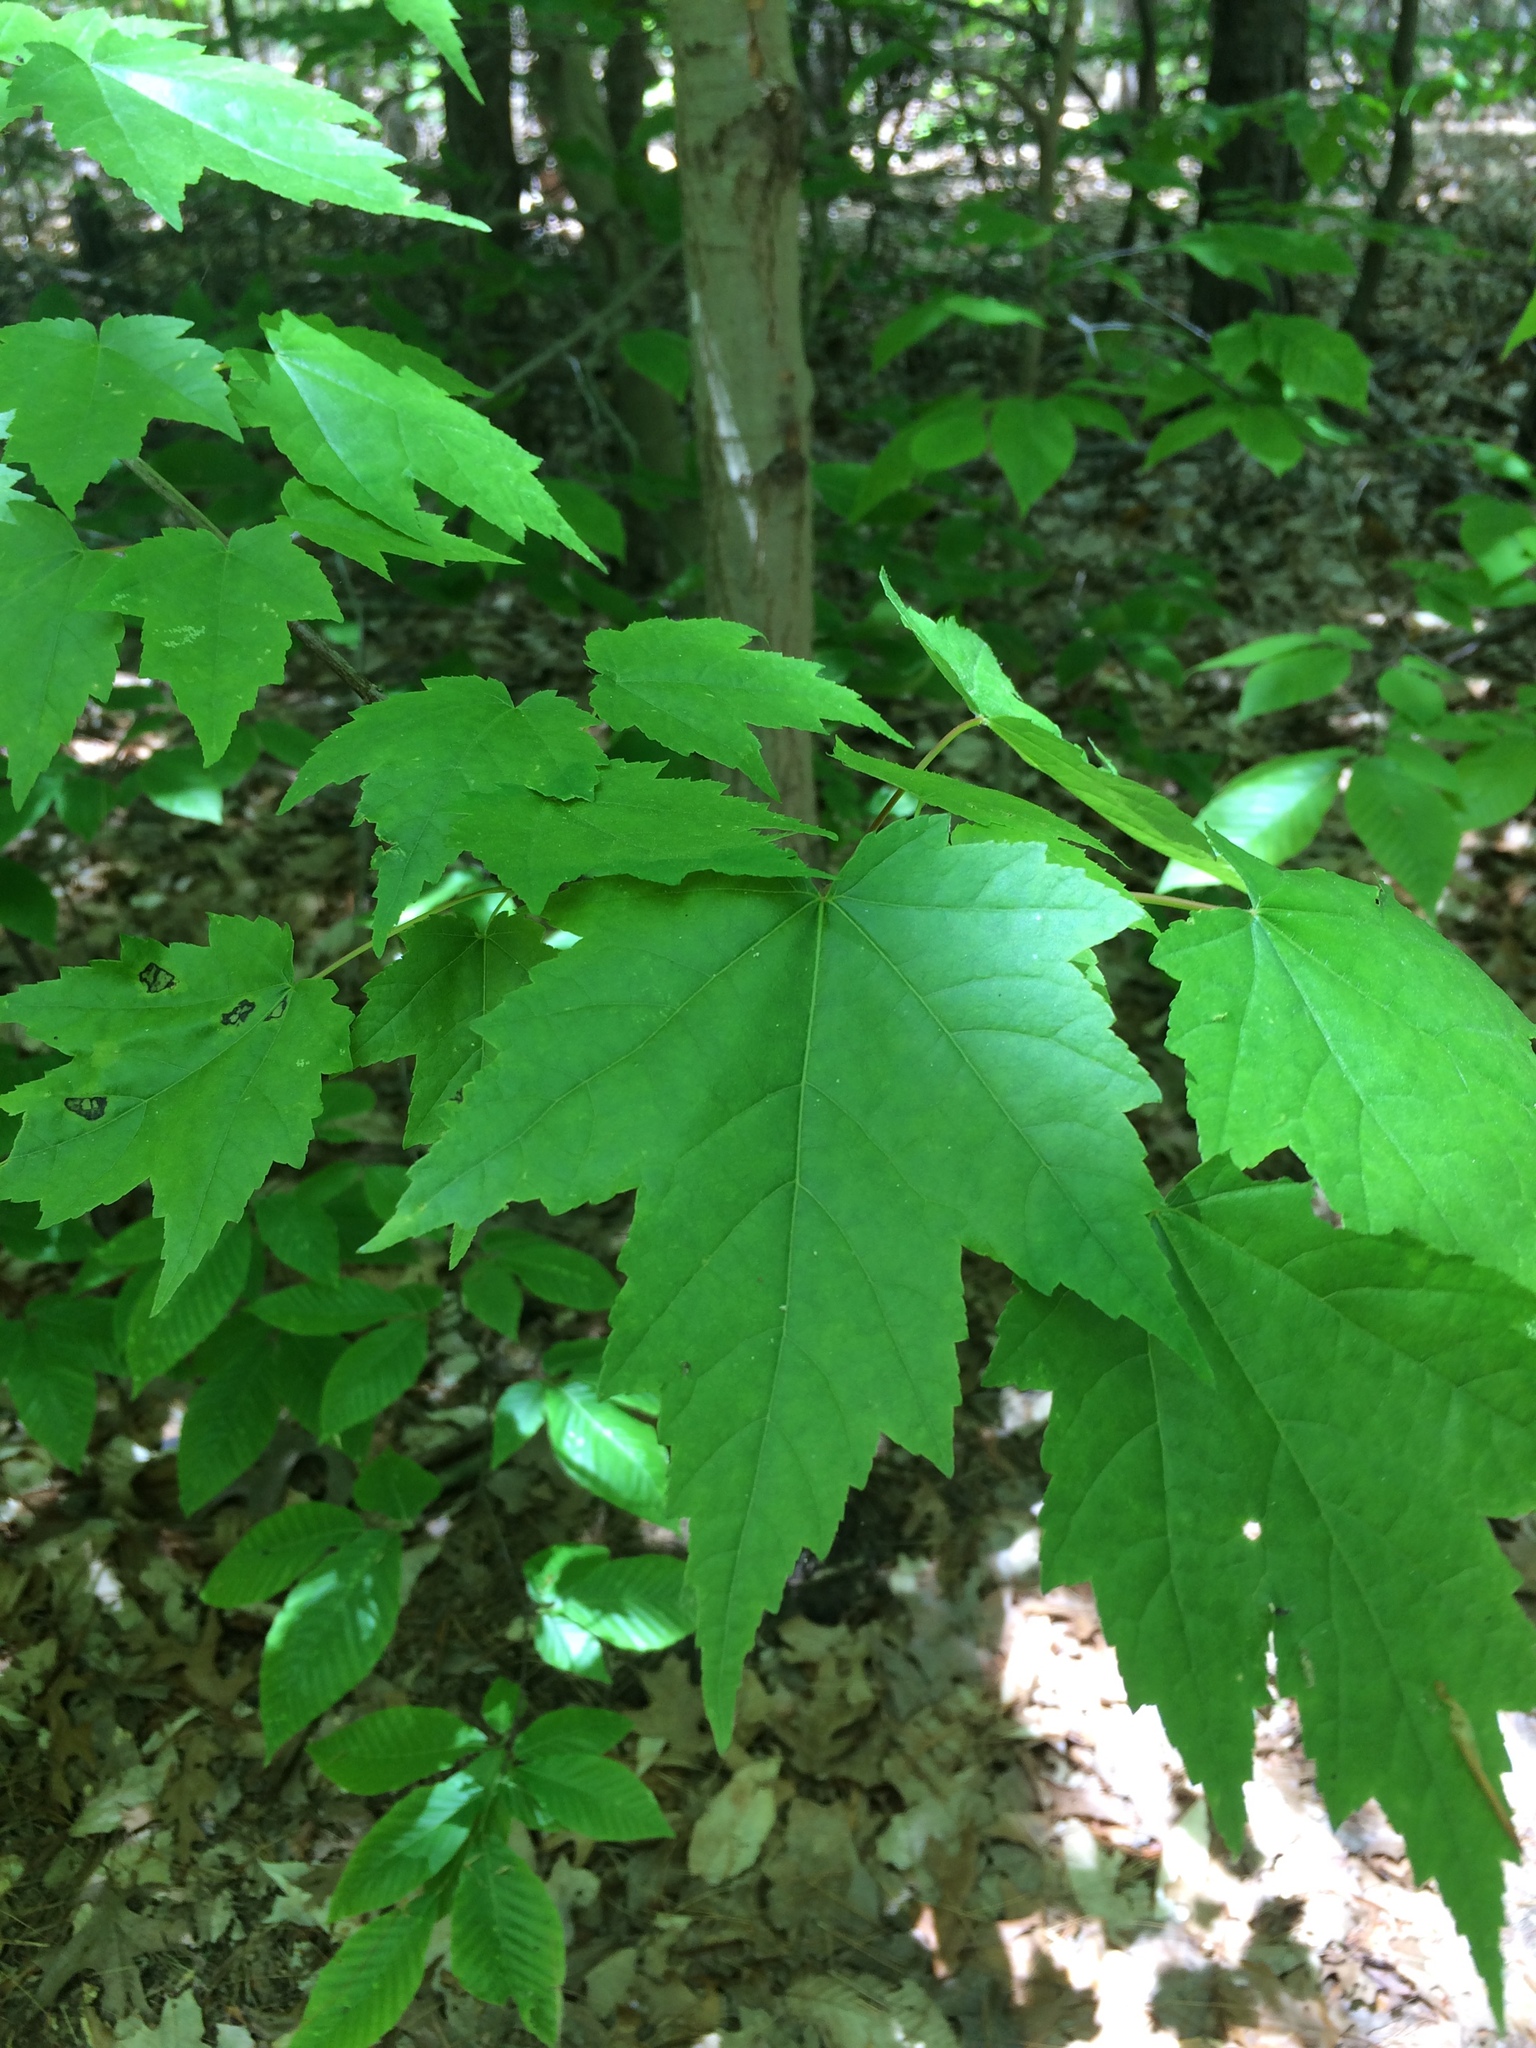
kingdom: Plantae
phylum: Tracheophyta
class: Magnoliopsida
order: Sapindales
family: Sapindaceae
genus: Acer
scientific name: Acer rubrum
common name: Red maple
